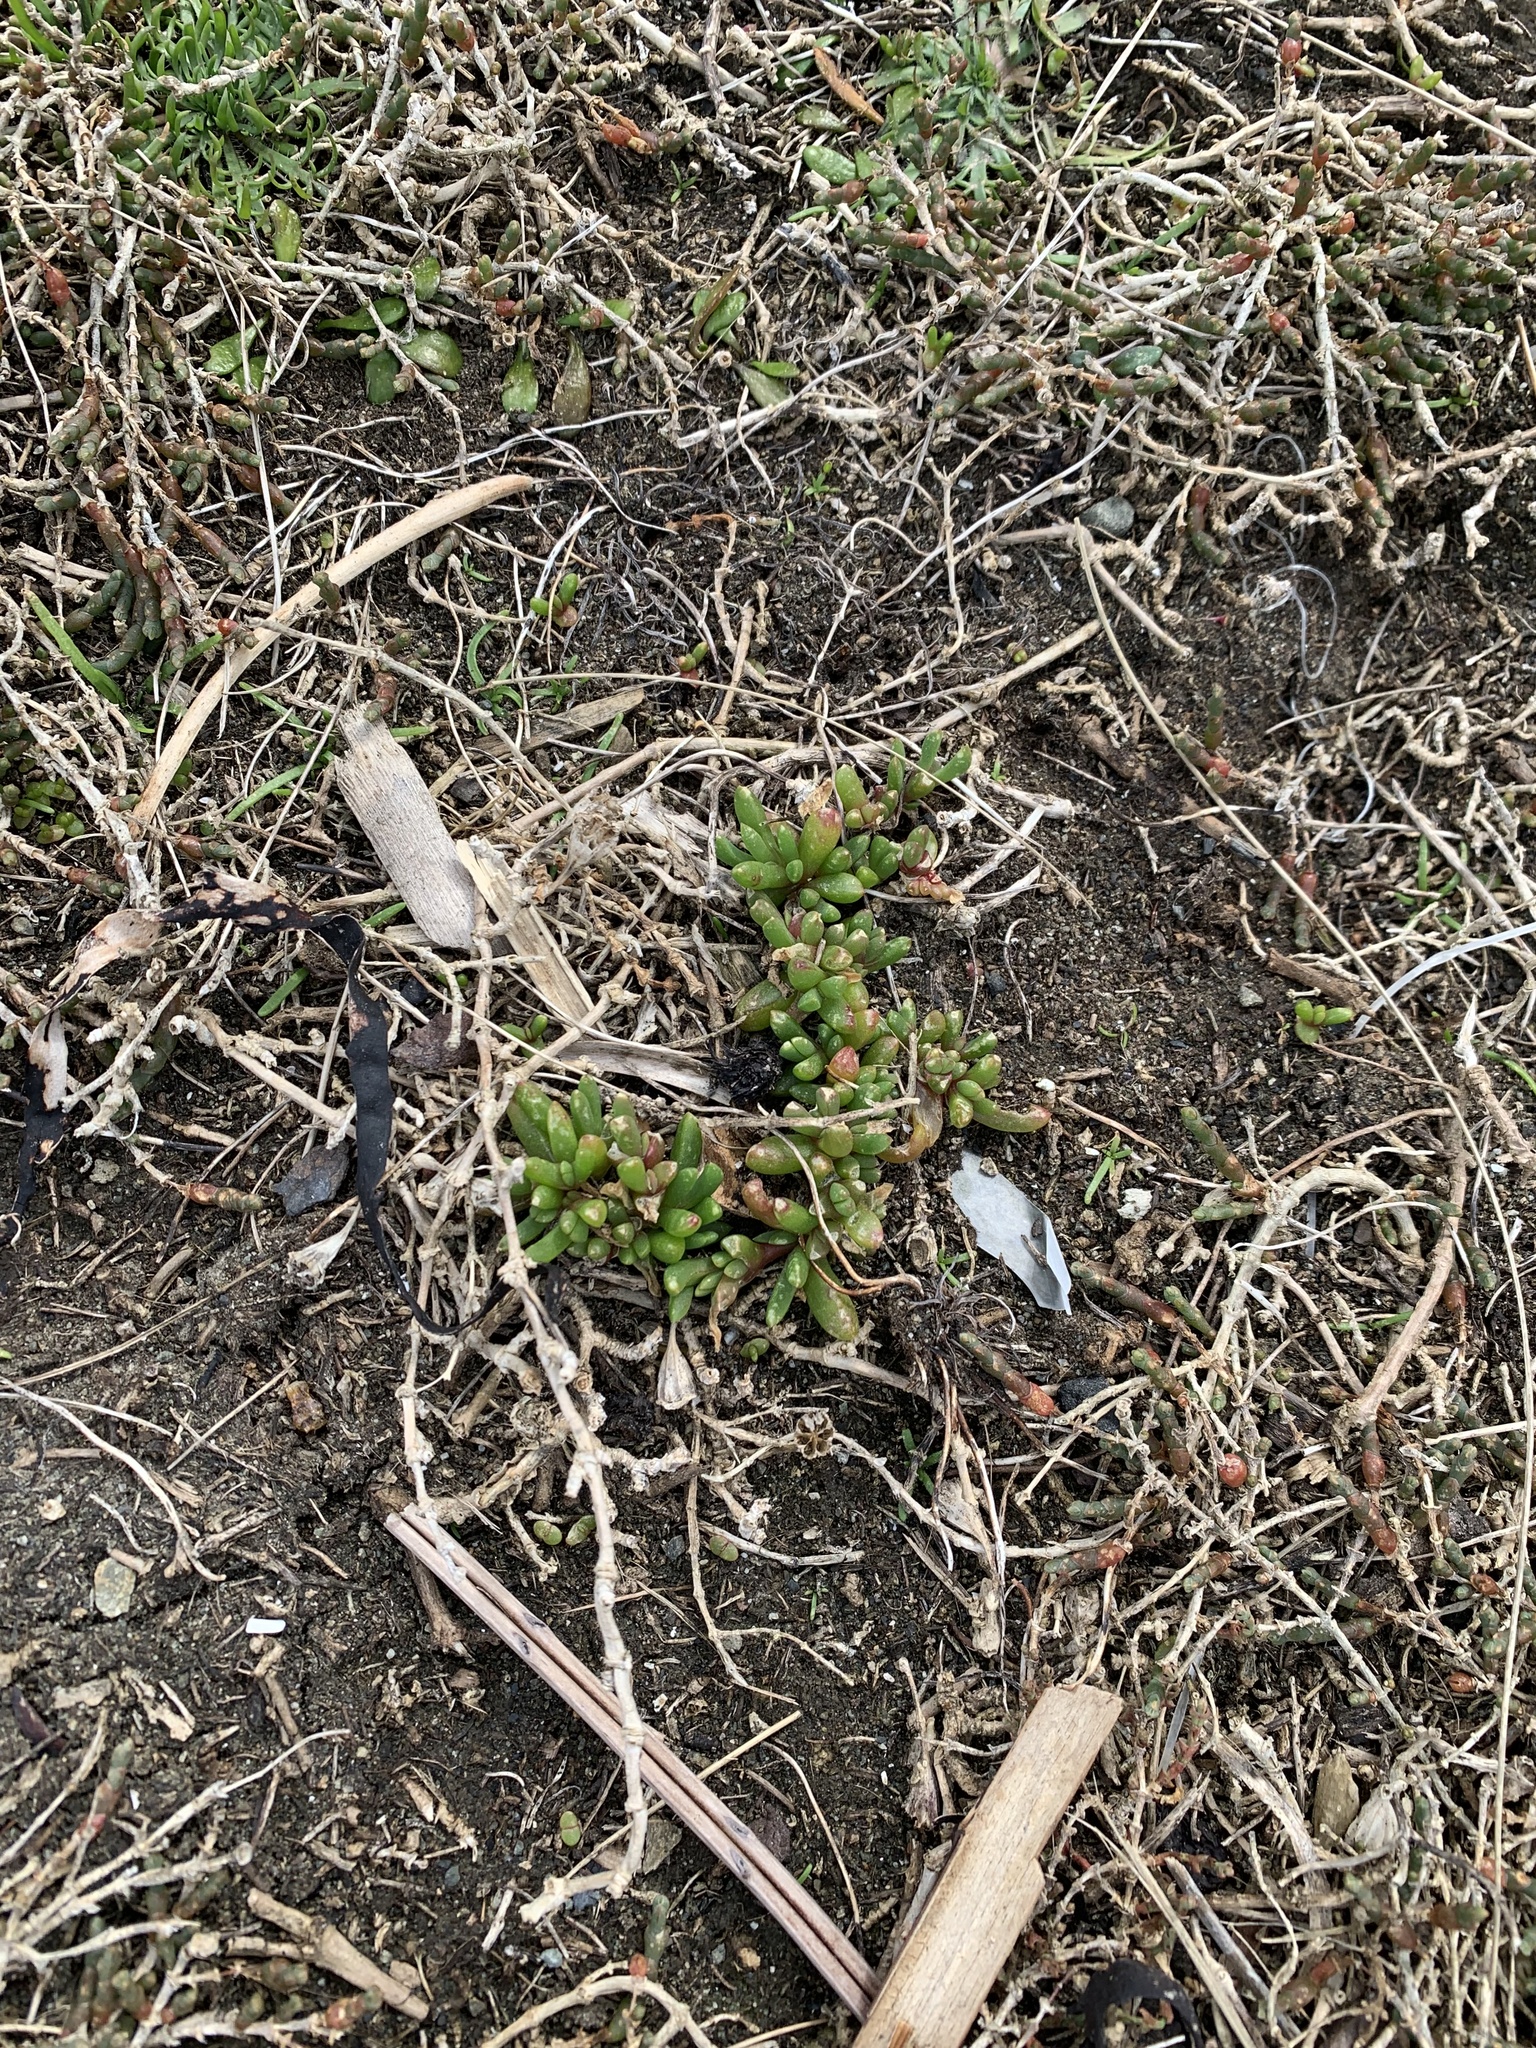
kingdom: Plantae
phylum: Tracheophyta
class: Magnoliopsida
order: Caryophyllales
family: Aizoaceae
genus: Disphyma
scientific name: Disphyma australe
